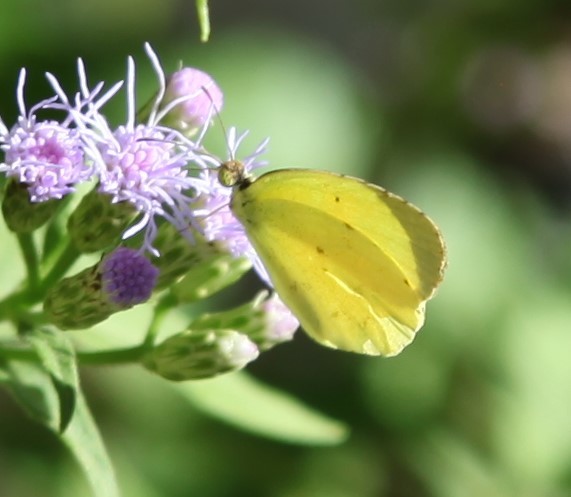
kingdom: Animalia
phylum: Arthropoda
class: Insecta
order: Lepidoptera
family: Pieridae
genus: Pyrisitia
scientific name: Pyrisitia nise
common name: Mimosa yellow
